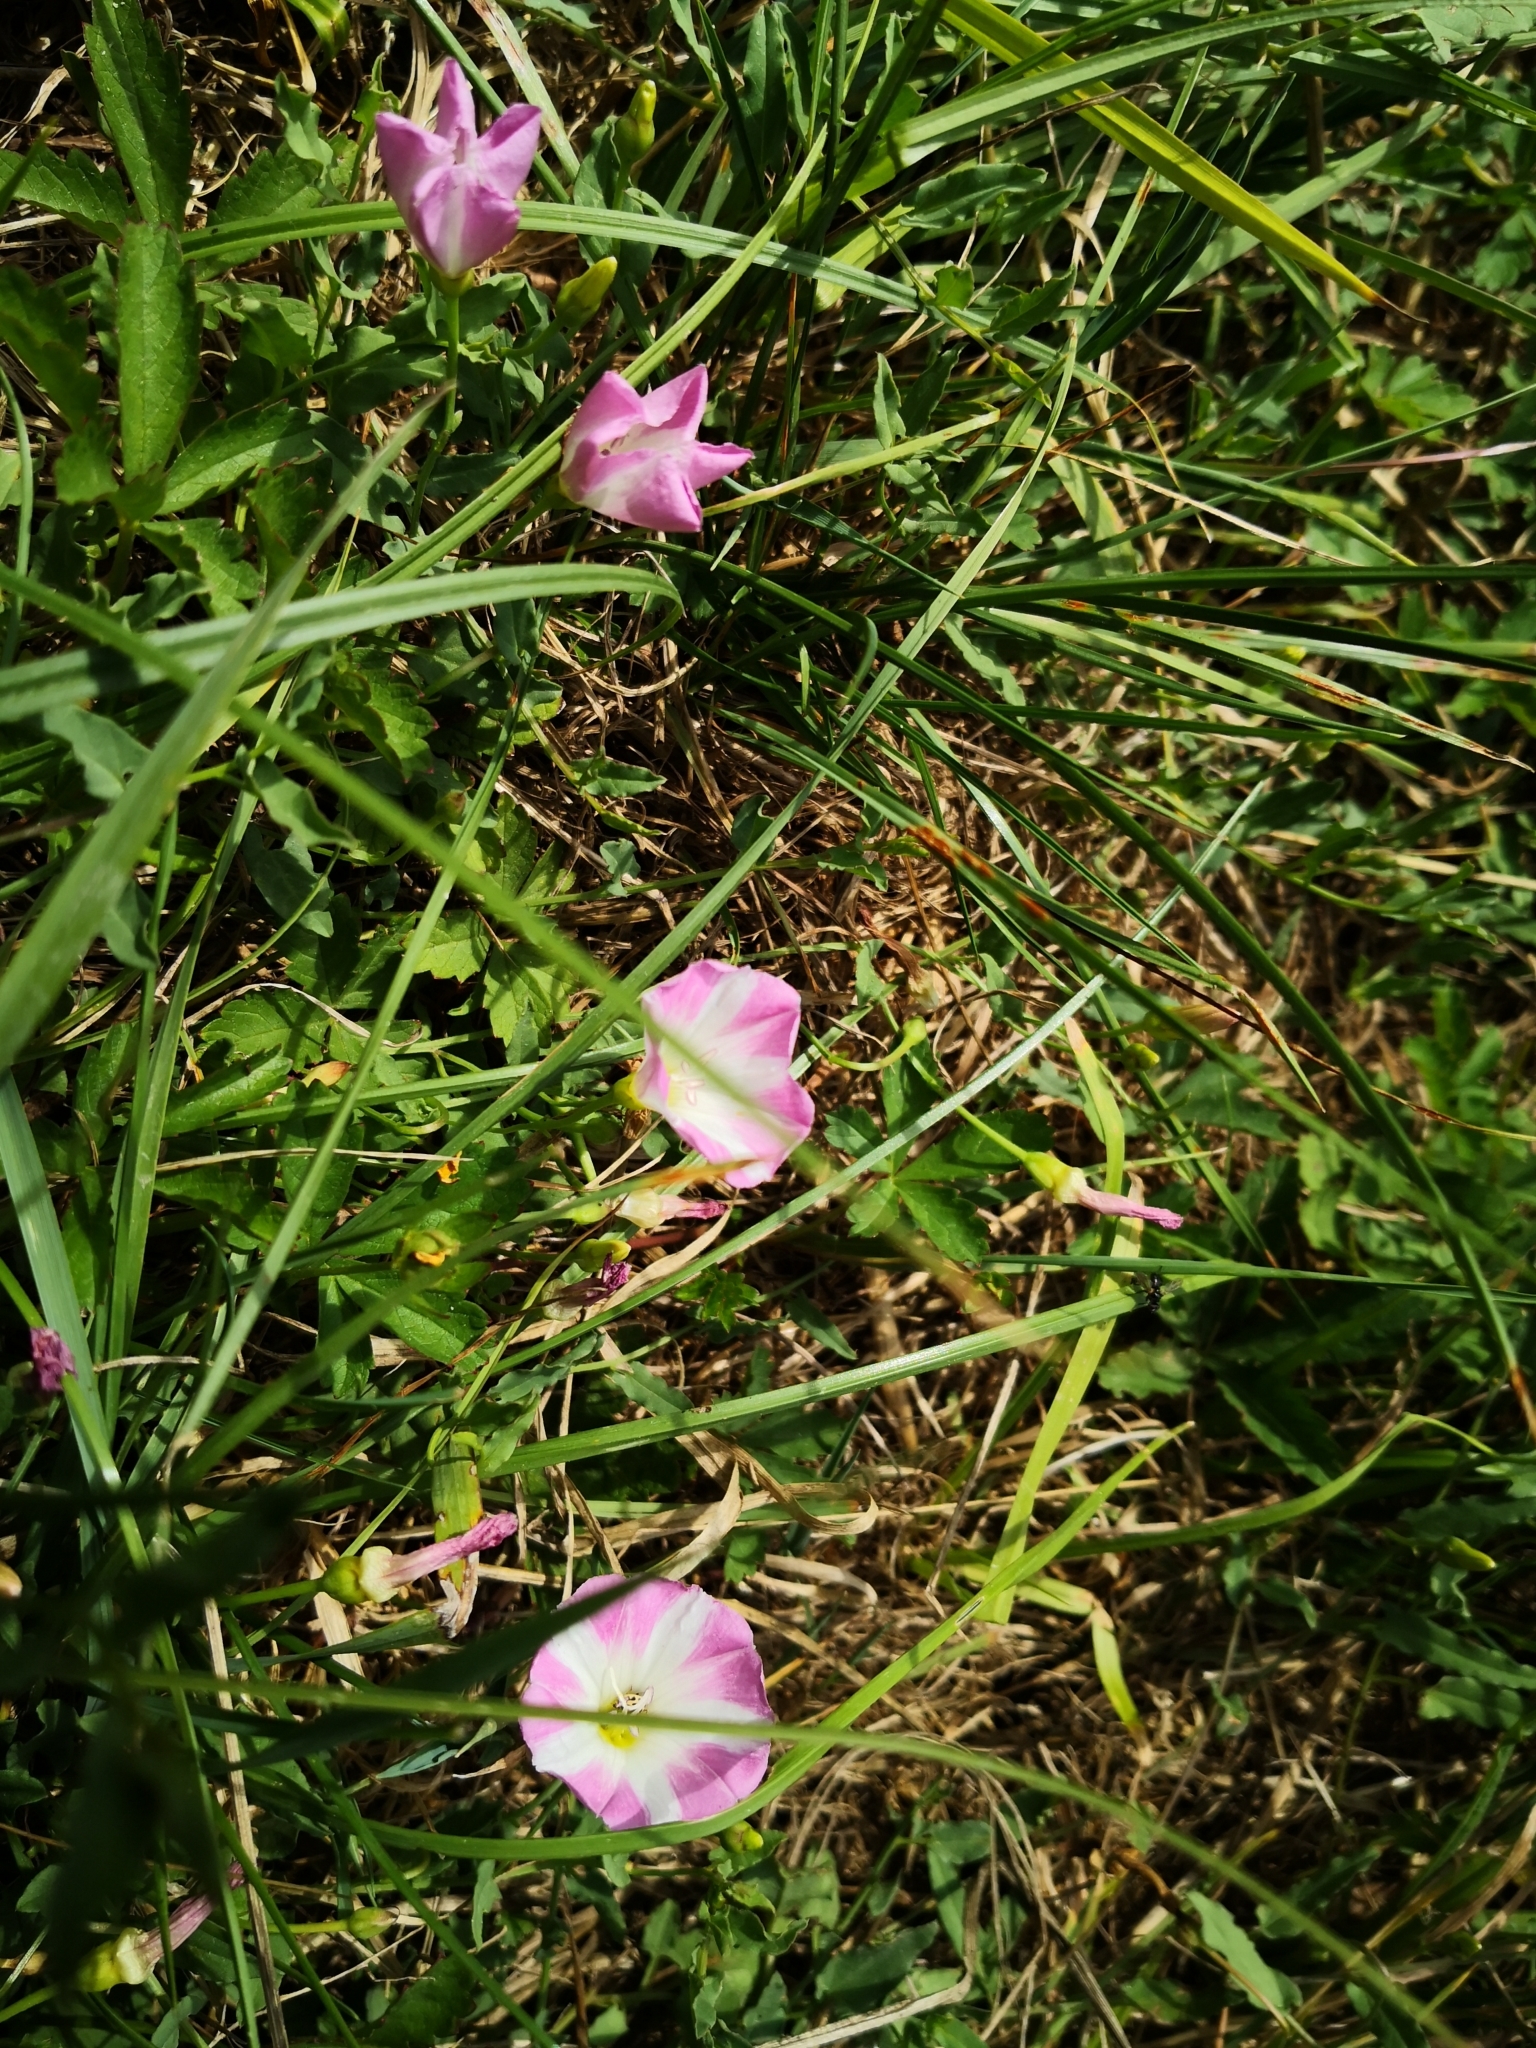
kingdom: Plantae
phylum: Tracheophyta
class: Magnoliopsida
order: Solanales
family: Convolvulaceae
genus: Convolvulus
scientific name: Convolvulus arvensis
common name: Field bindweed
